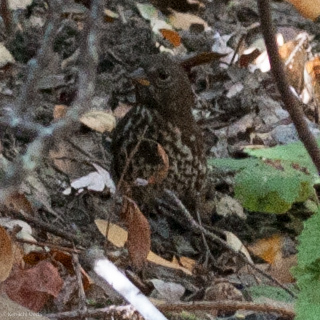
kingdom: Animalia
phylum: Chordata
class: Aves
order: Passeriformes
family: Passerellidae
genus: Passerella
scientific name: Passerella iliaca
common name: Fox sparrow
